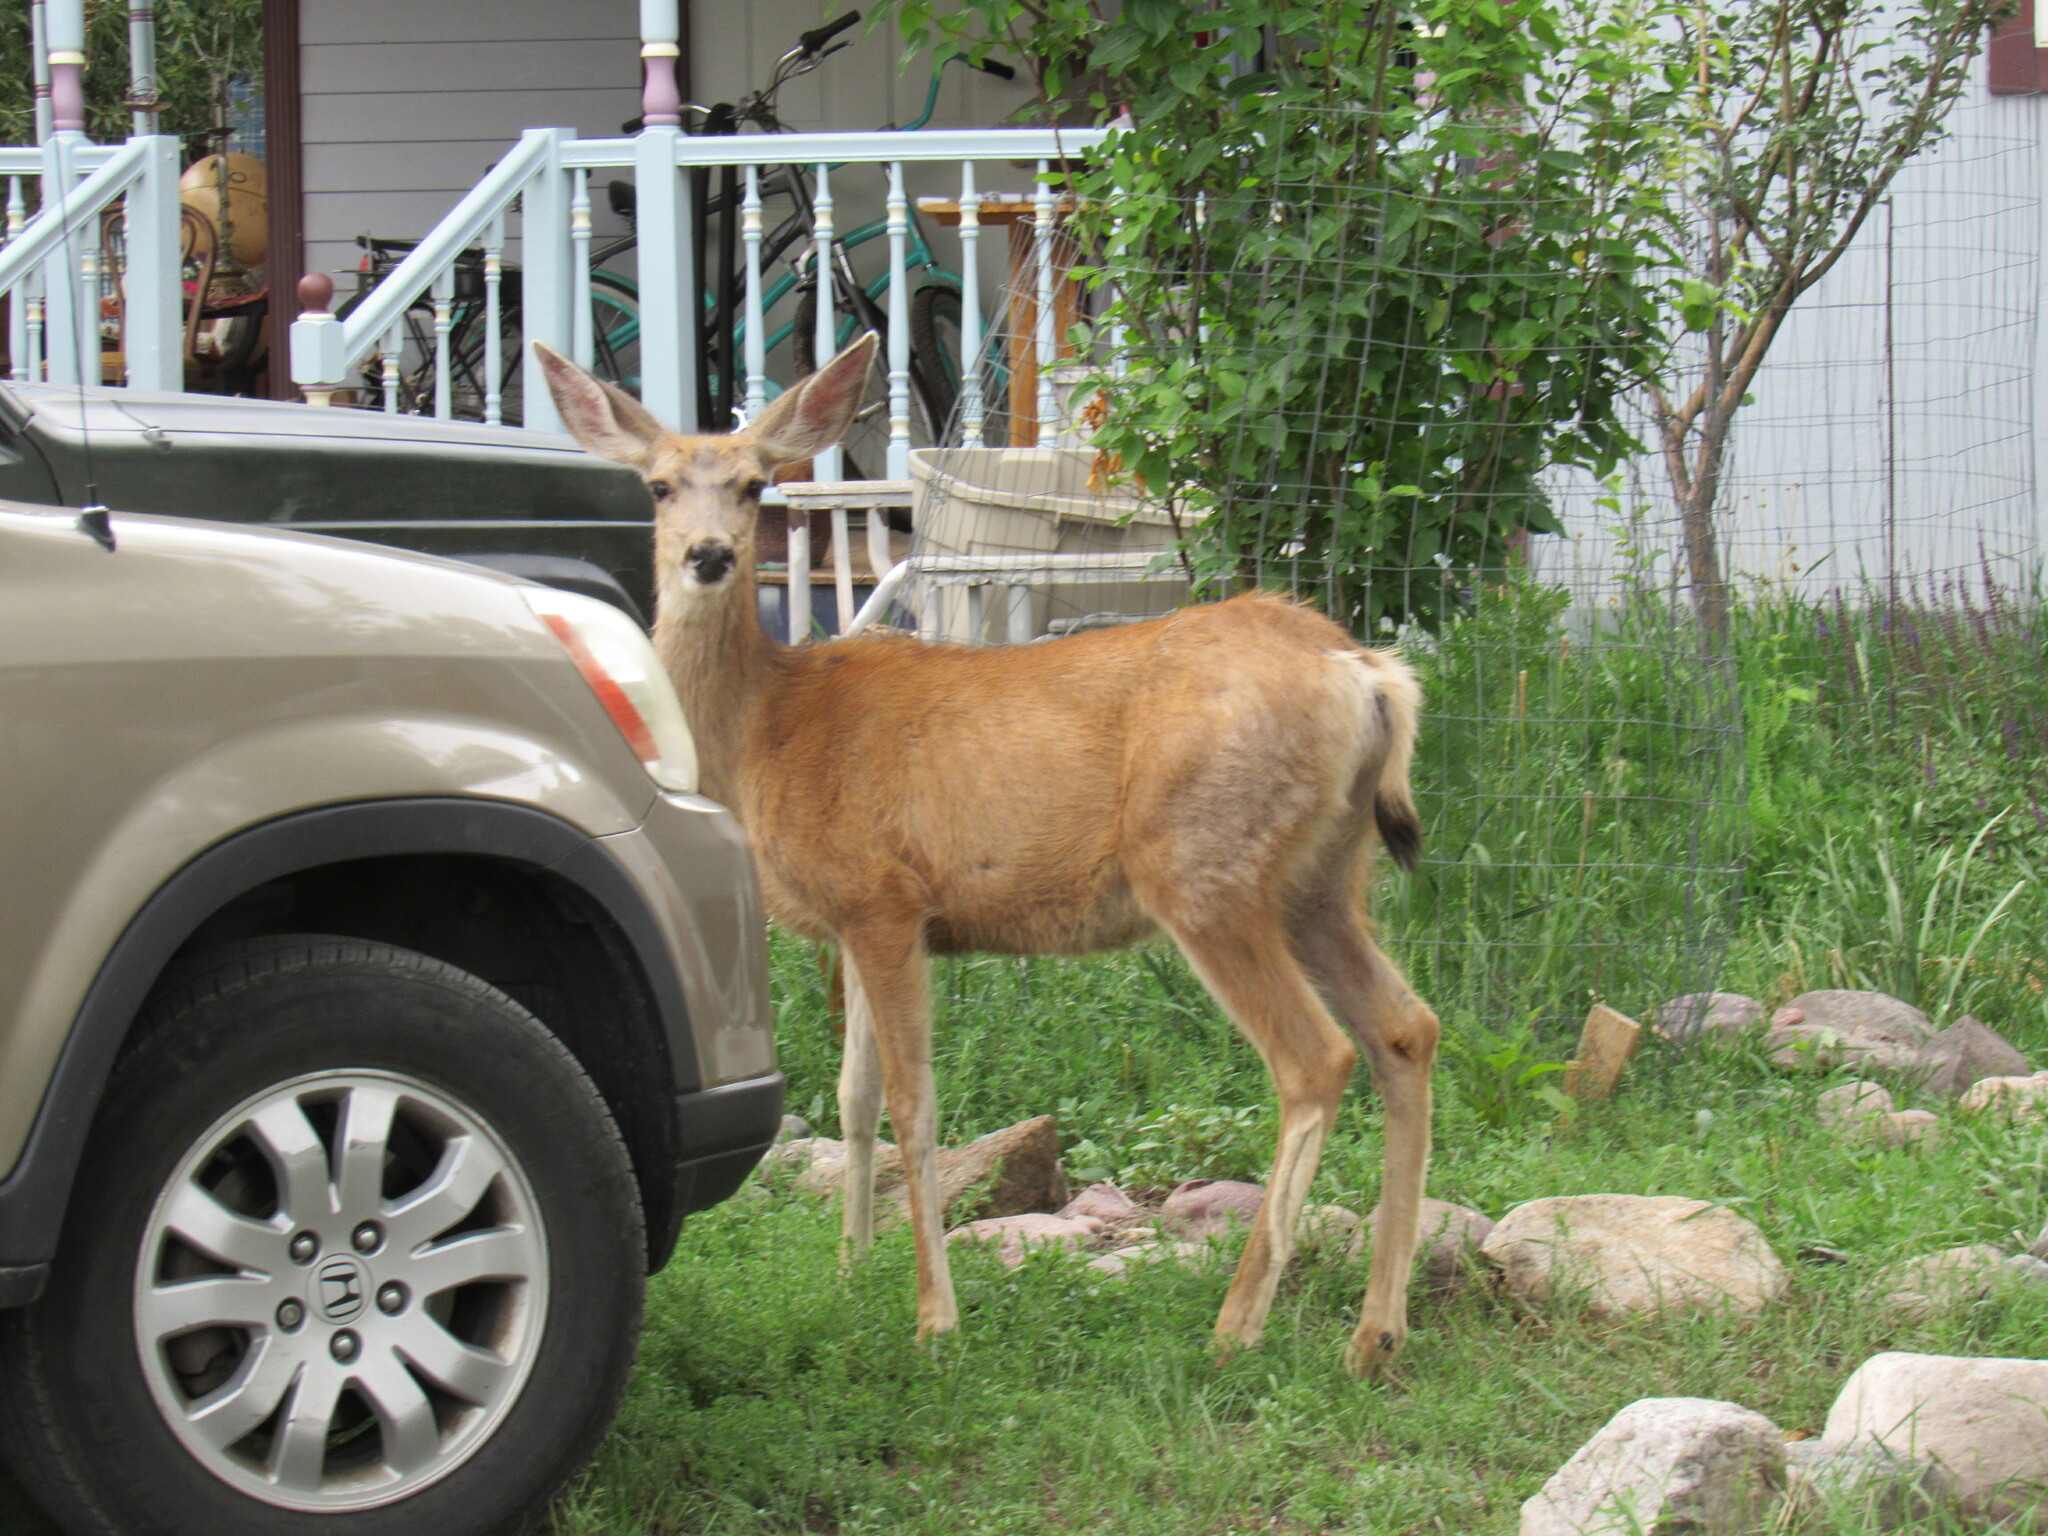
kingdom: Animalia
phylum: Chordata
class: Mammalia
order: Artiodactyla
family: Cervidae
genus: Odocoileus
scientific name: Odocoileus hemionus
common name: Mule deer
